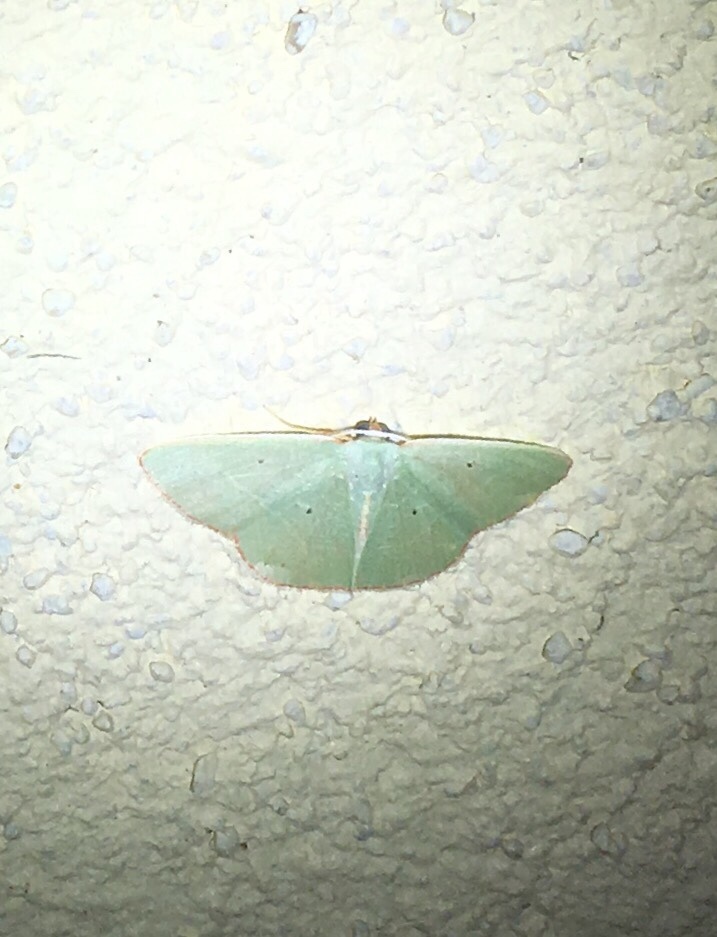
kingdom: Animalia
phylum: Arthropoda
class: Insecta
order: Lepidoptera
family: Geometridae
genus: Nemoria
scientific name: Nemoria elfa
